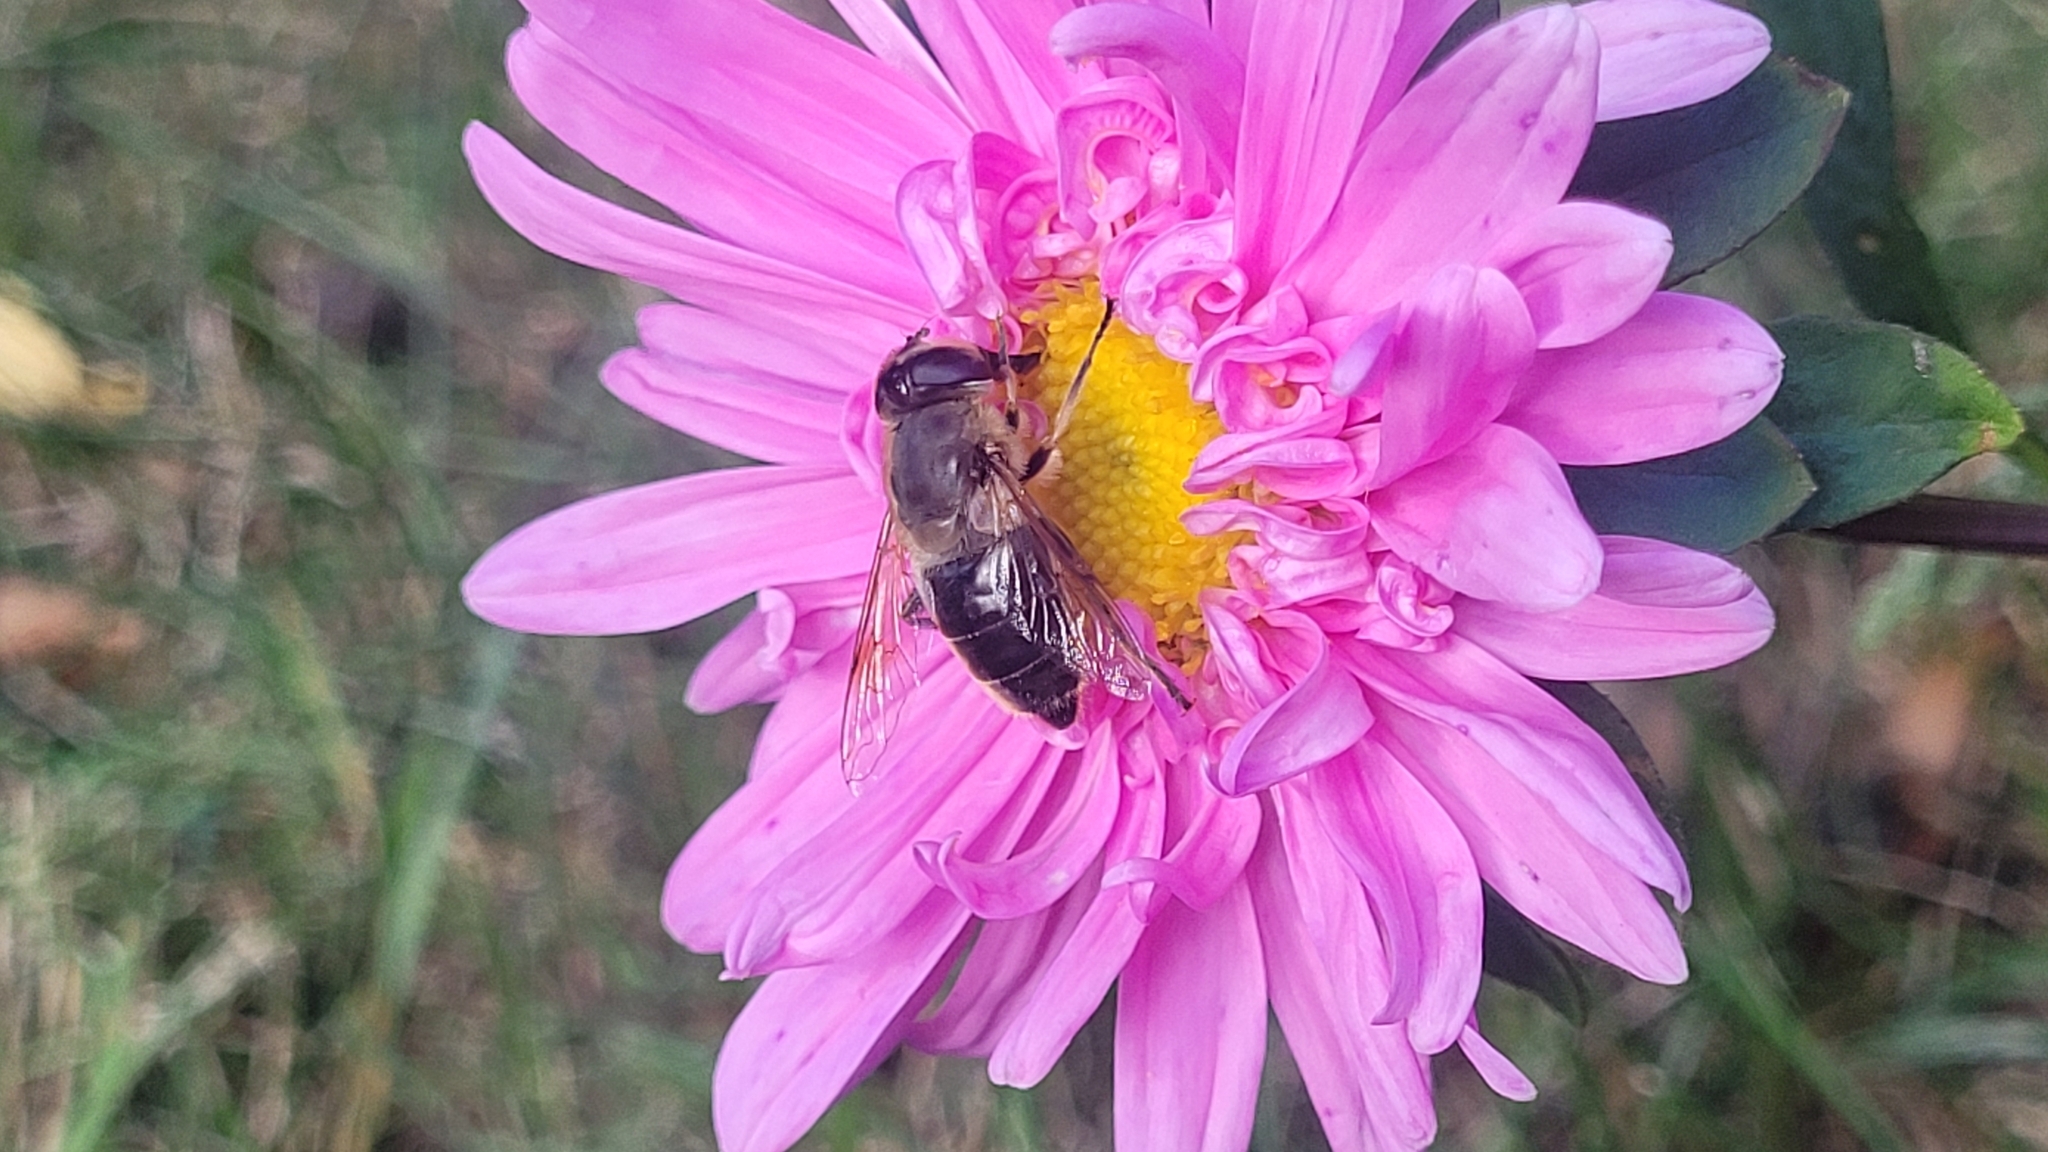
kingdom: Animalia
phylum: Arthropoda
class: Insecta
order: Diptera
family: Syrphidae
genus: Eristalis
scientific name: Eristalis tenax
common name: Drone fly
